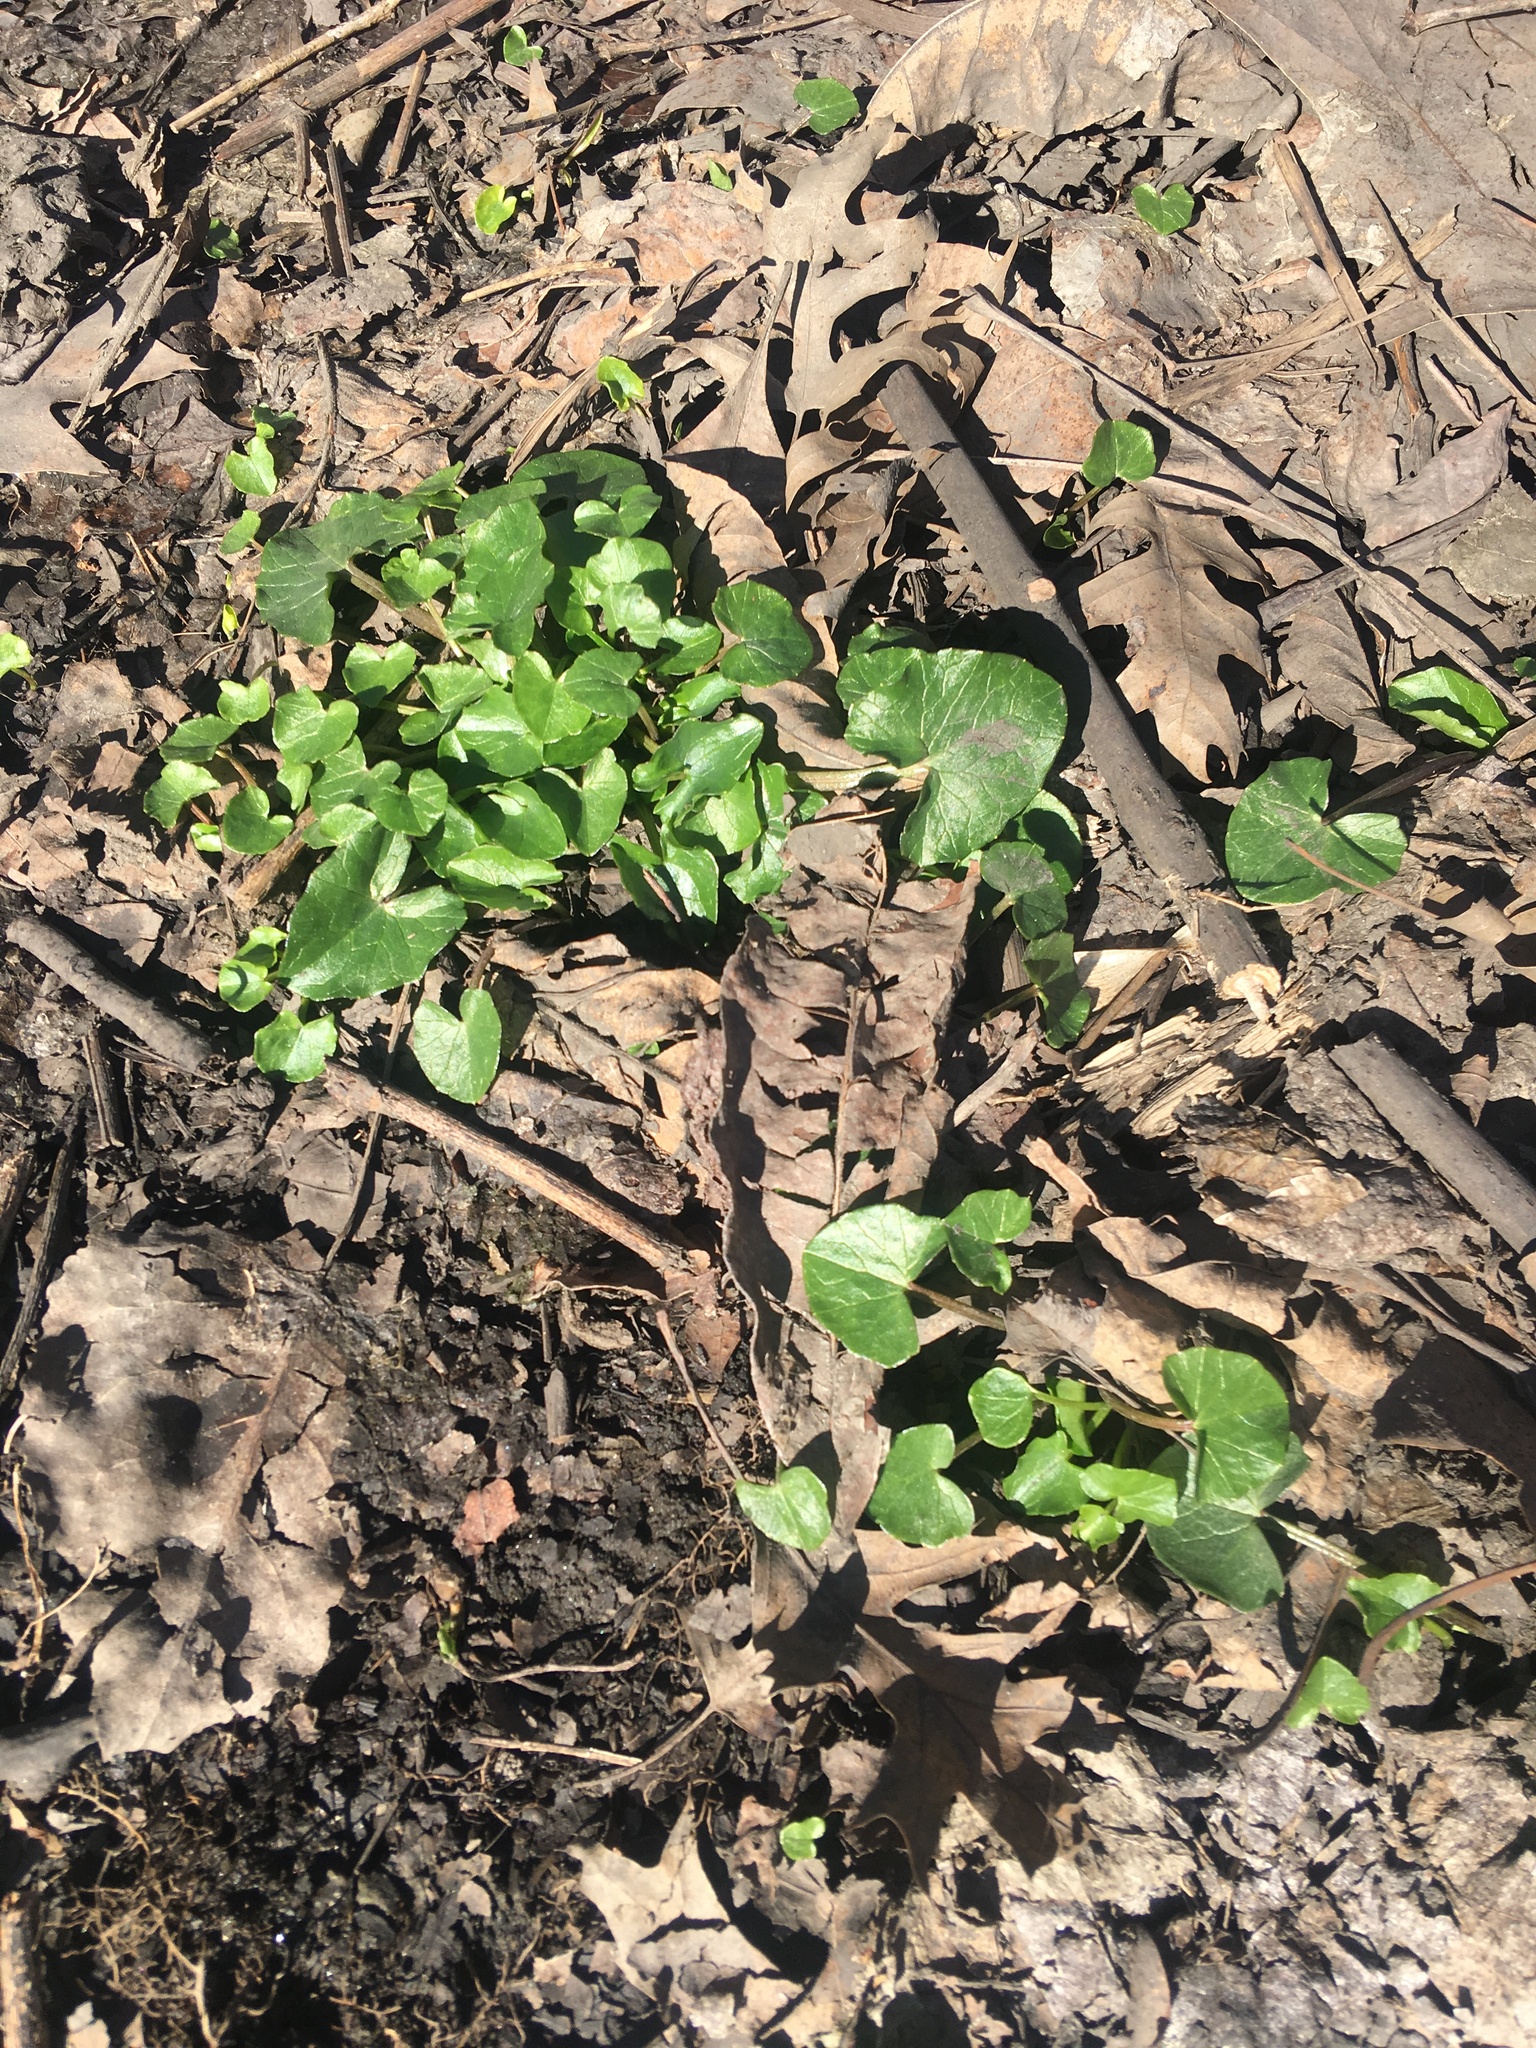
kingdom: Plantae
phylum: Tracheophyta
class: Magnoliopsida
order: Ranunculales
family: Ranunculaceae
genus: Ficaria
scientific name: Ficaria verna
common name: Lesser celandine
